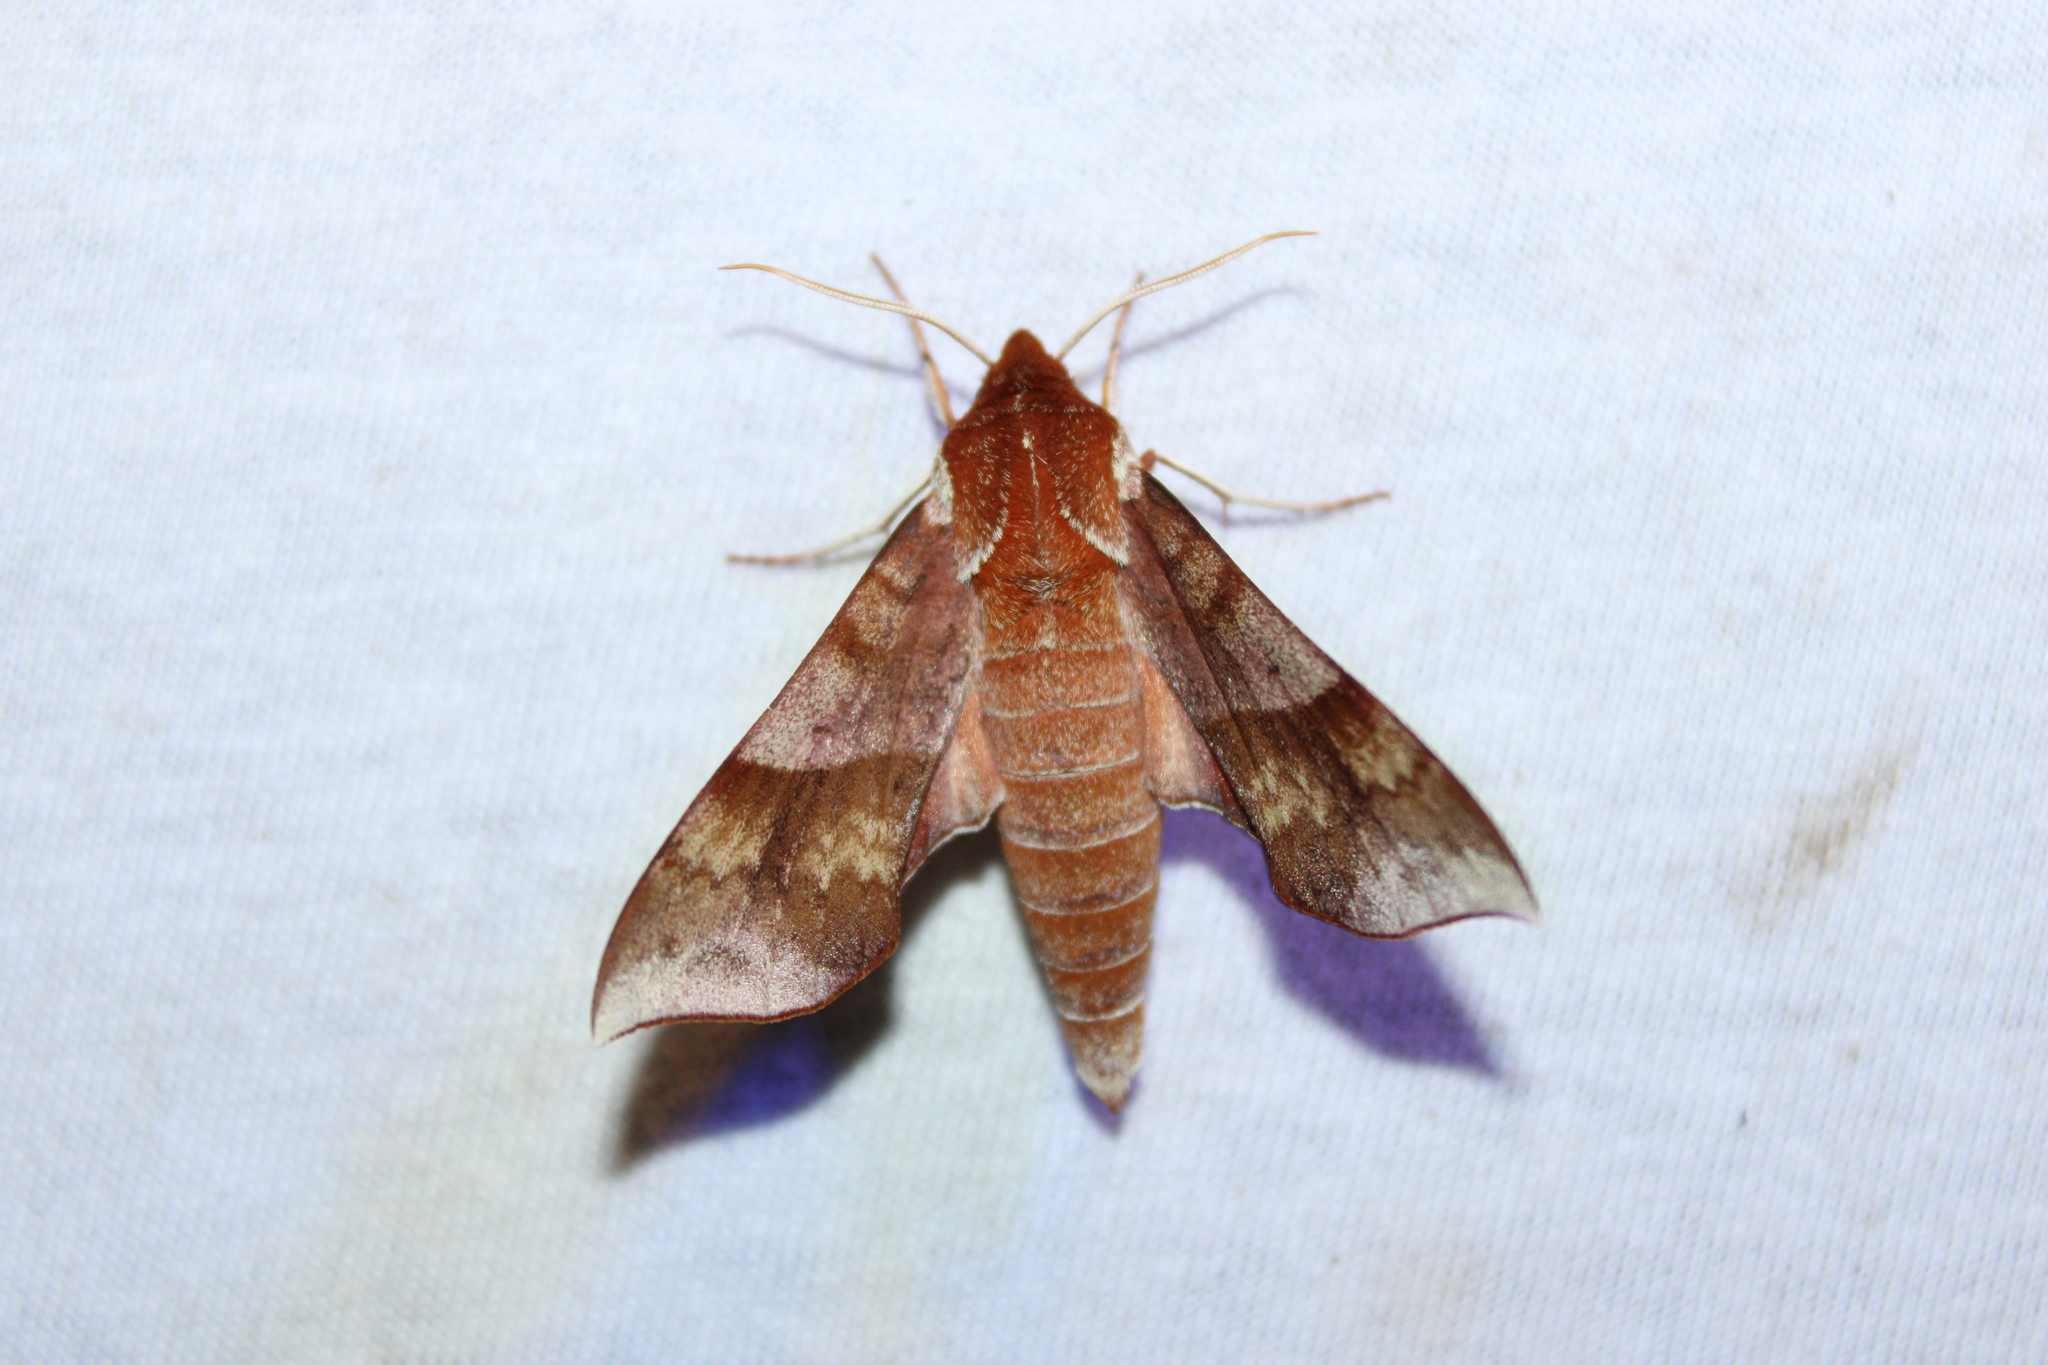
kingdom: Animalia
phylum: Arthropoda
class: Insecta
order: Lepidoptera
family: Sphingidae
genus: Darapsa
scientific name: Darapsa choerilus
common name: Azalea sphinx
